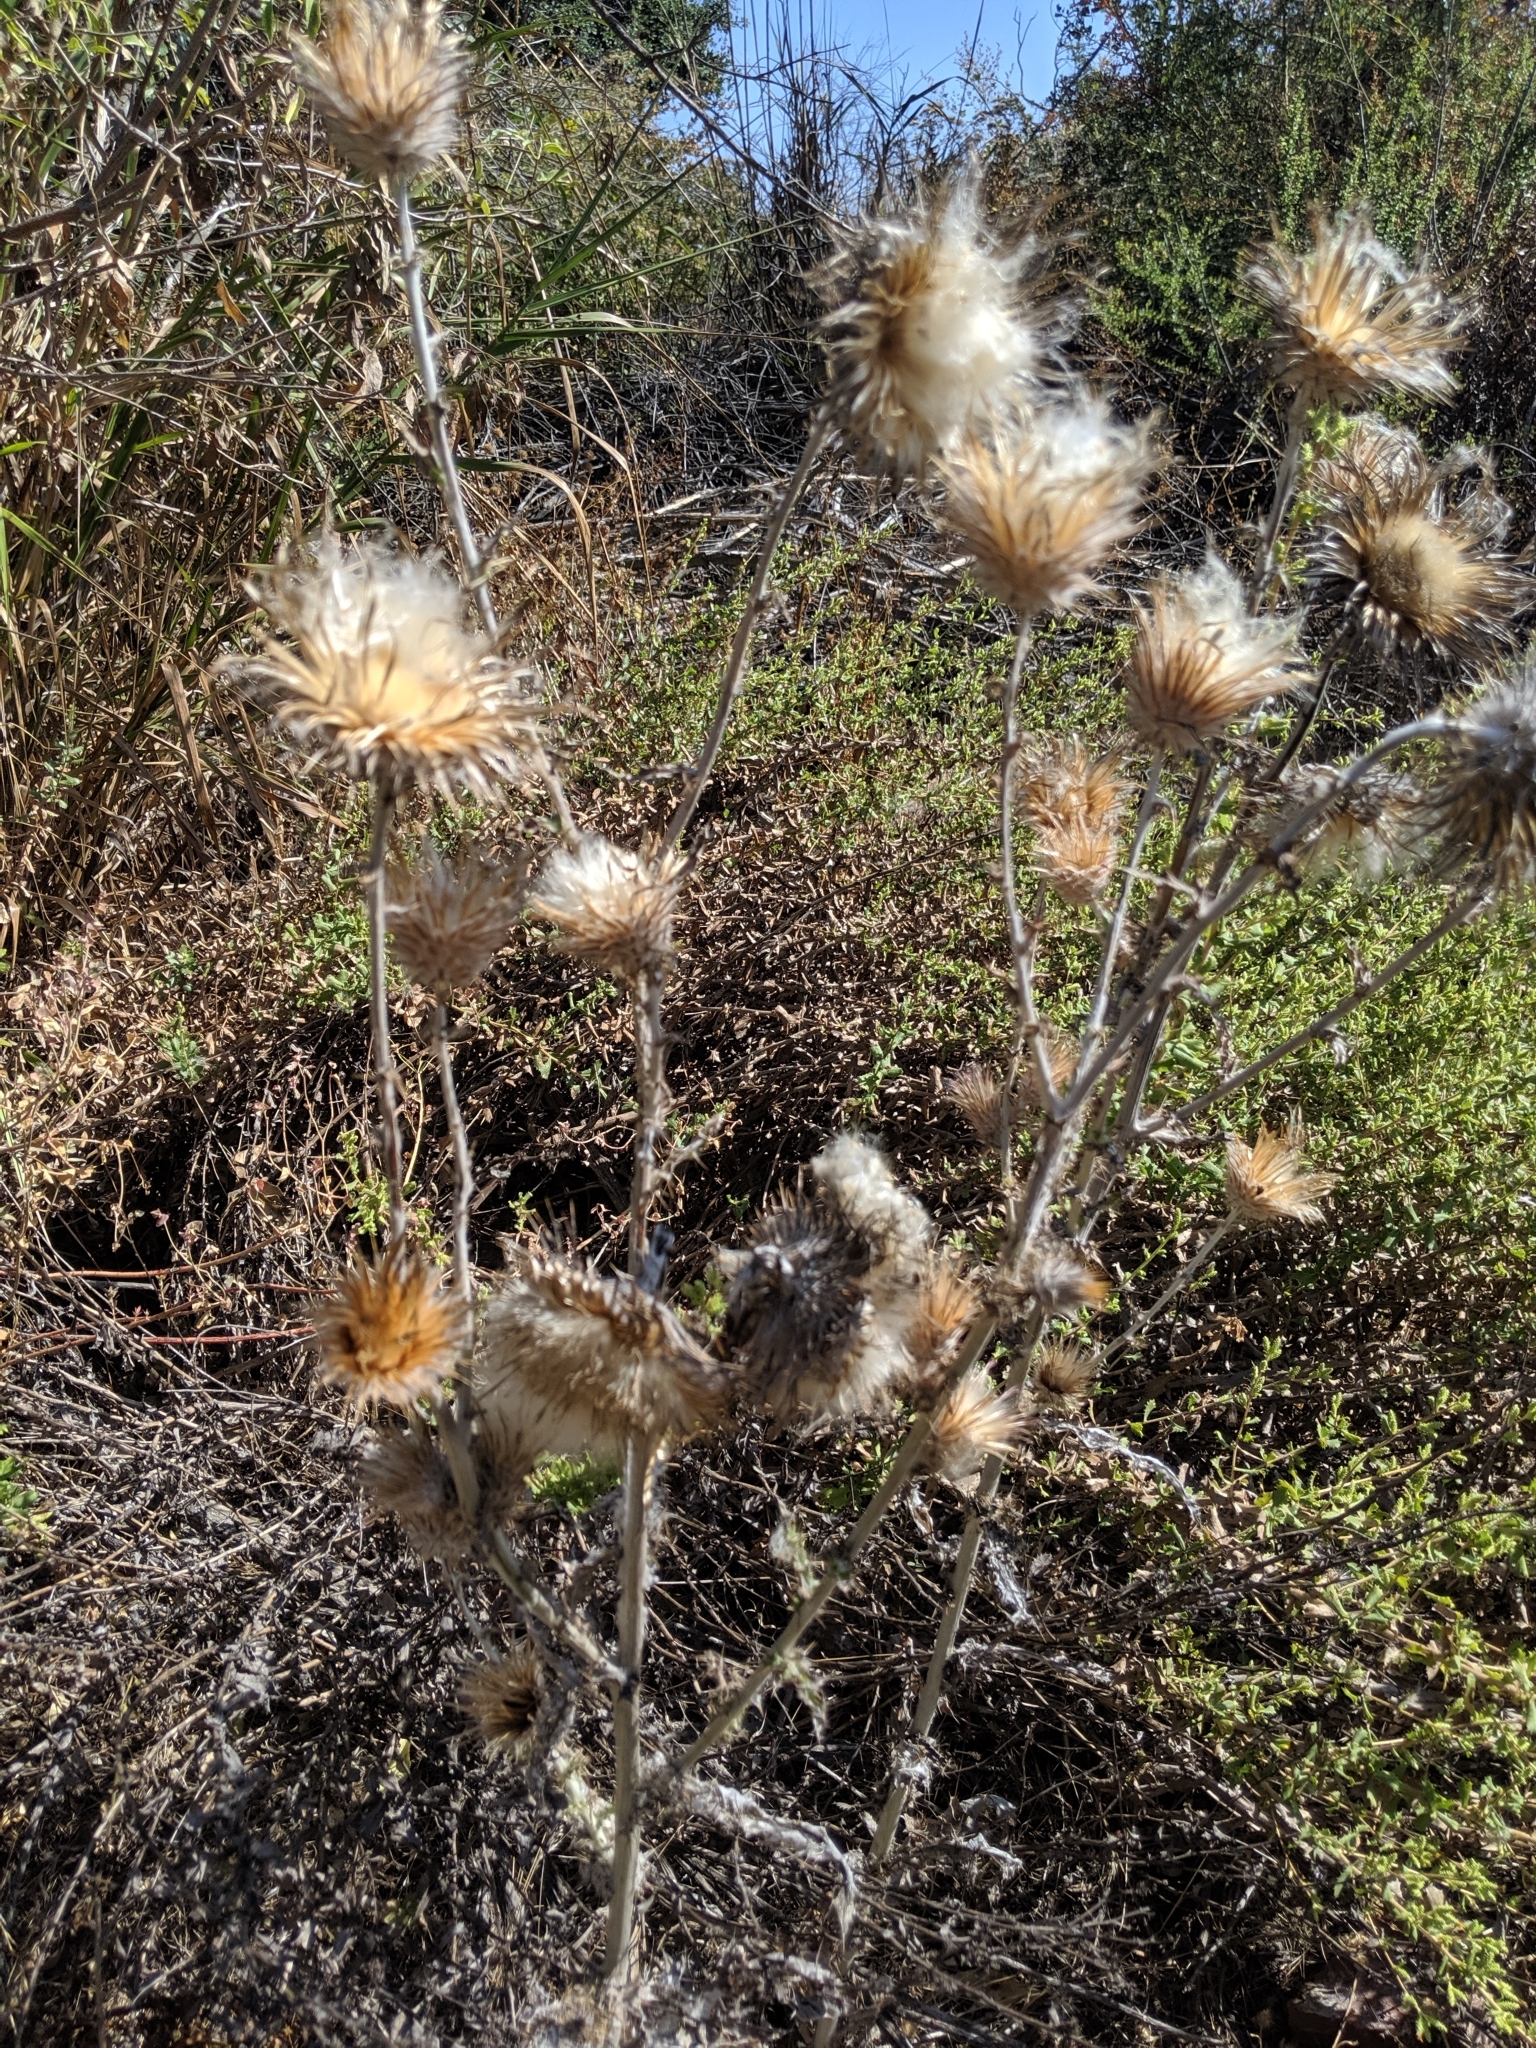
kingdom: Plantae
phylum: Tracheophyta
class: Magnoliopsida
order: Asterales
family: Asteraceae
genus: Cirsium
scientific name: Cirsium occidentale
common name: Western thistle
